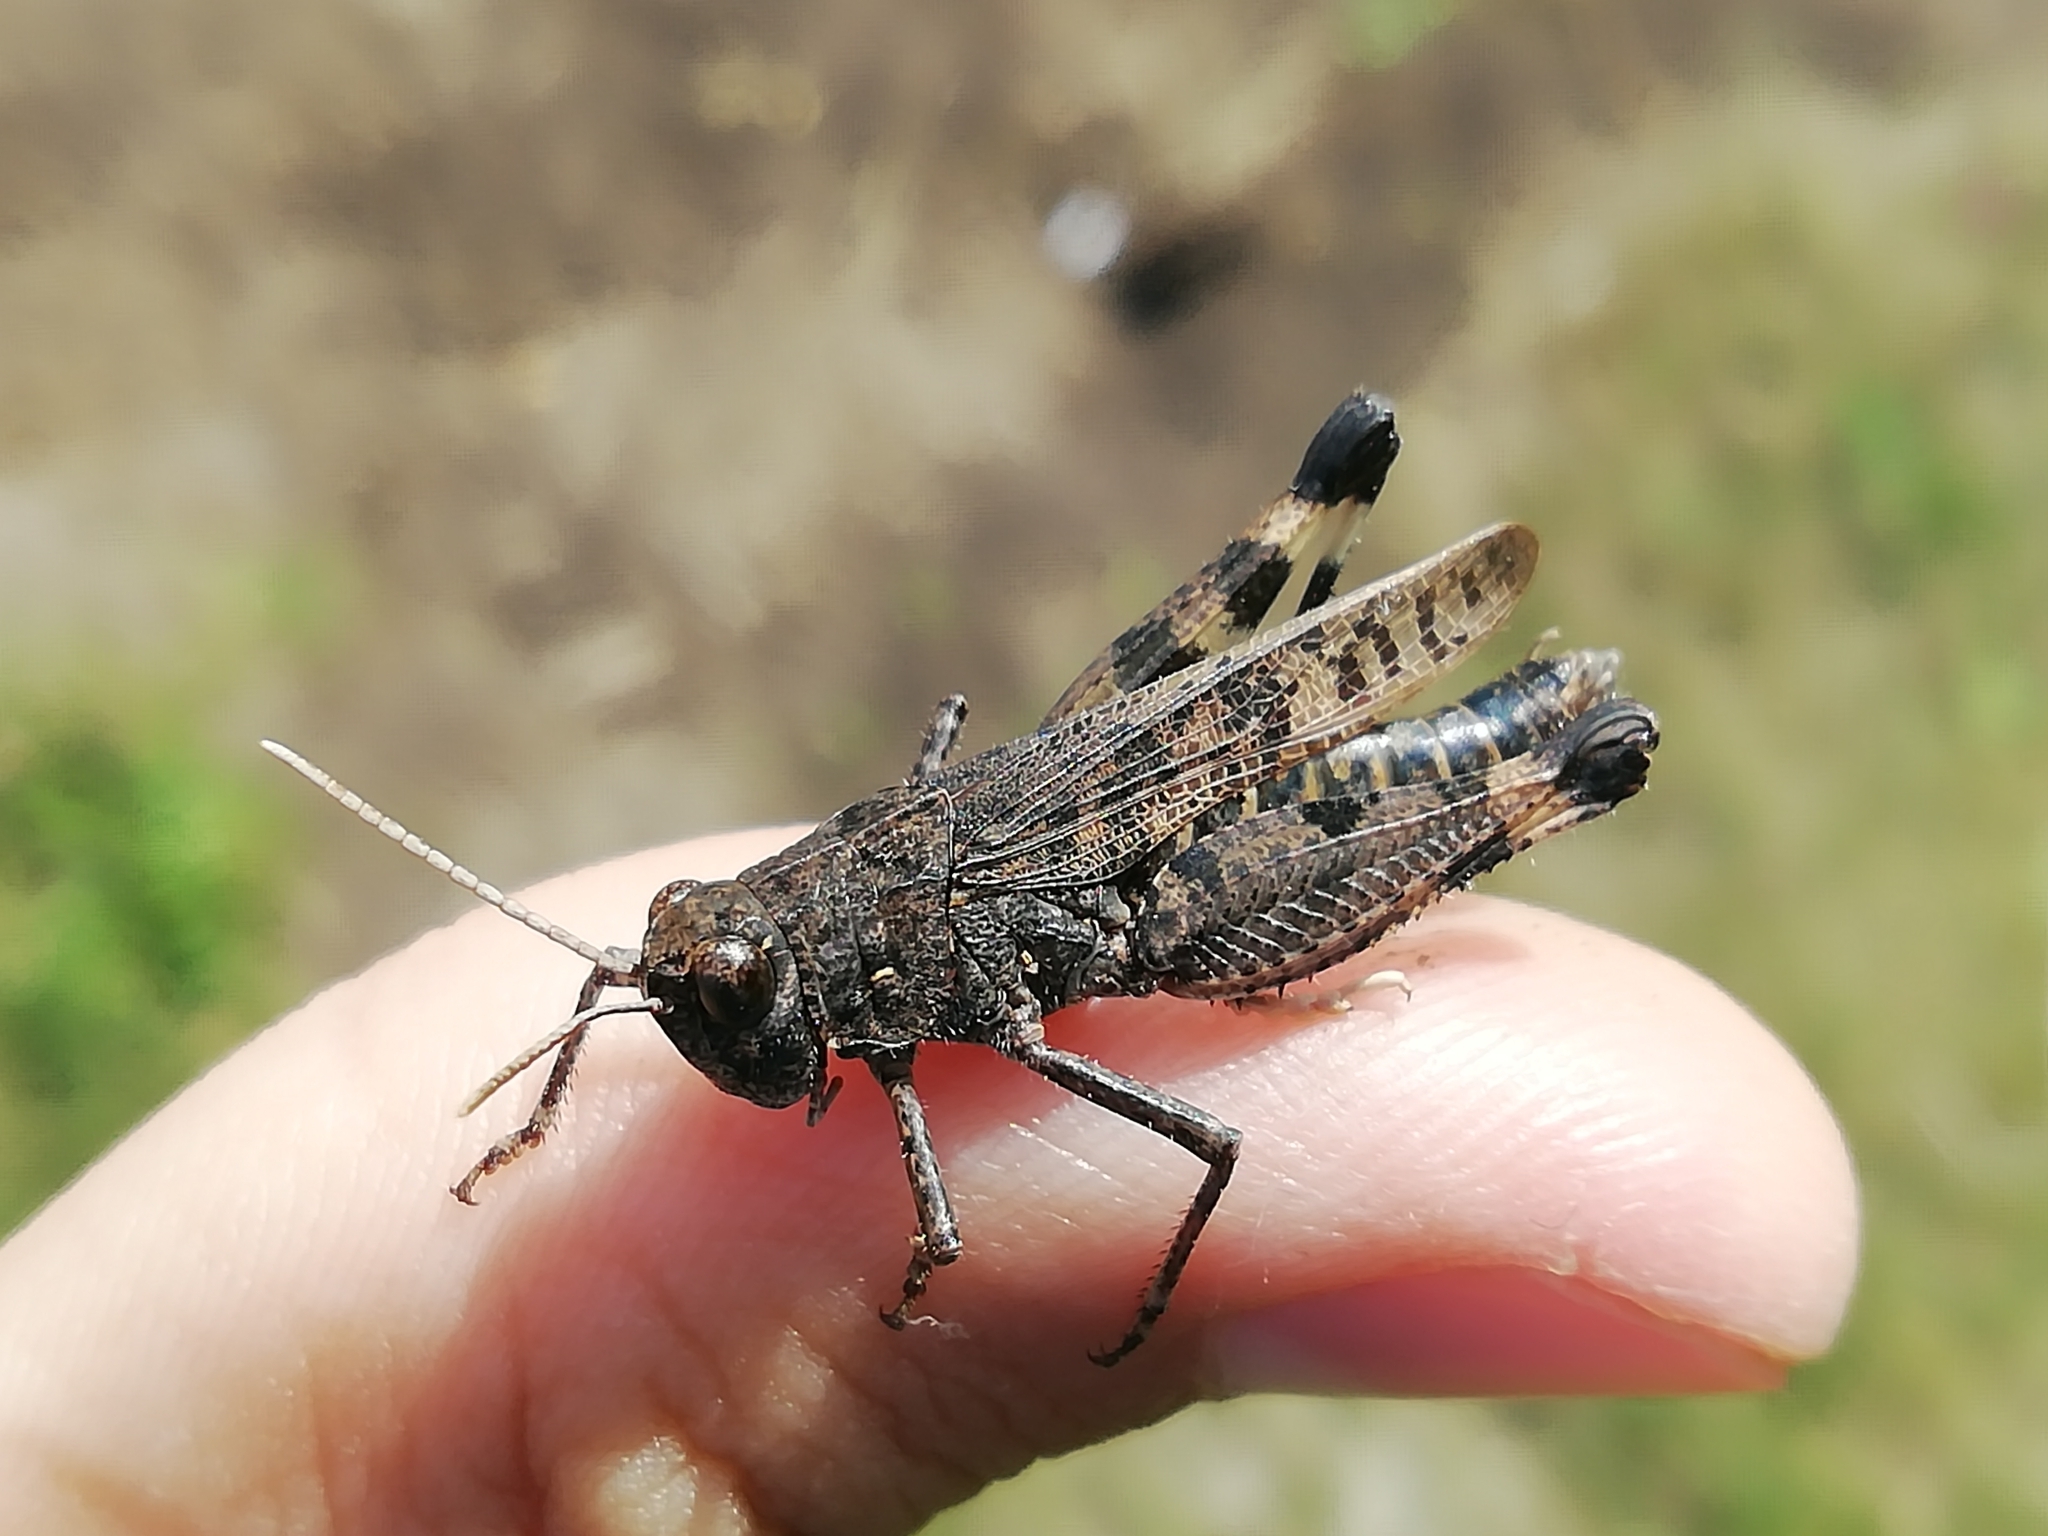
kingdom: Animalia
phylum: Arthropoda
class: Insecta
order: Orthoptera
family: Acrididae
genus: Celes
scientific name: Celes skalozubovi
